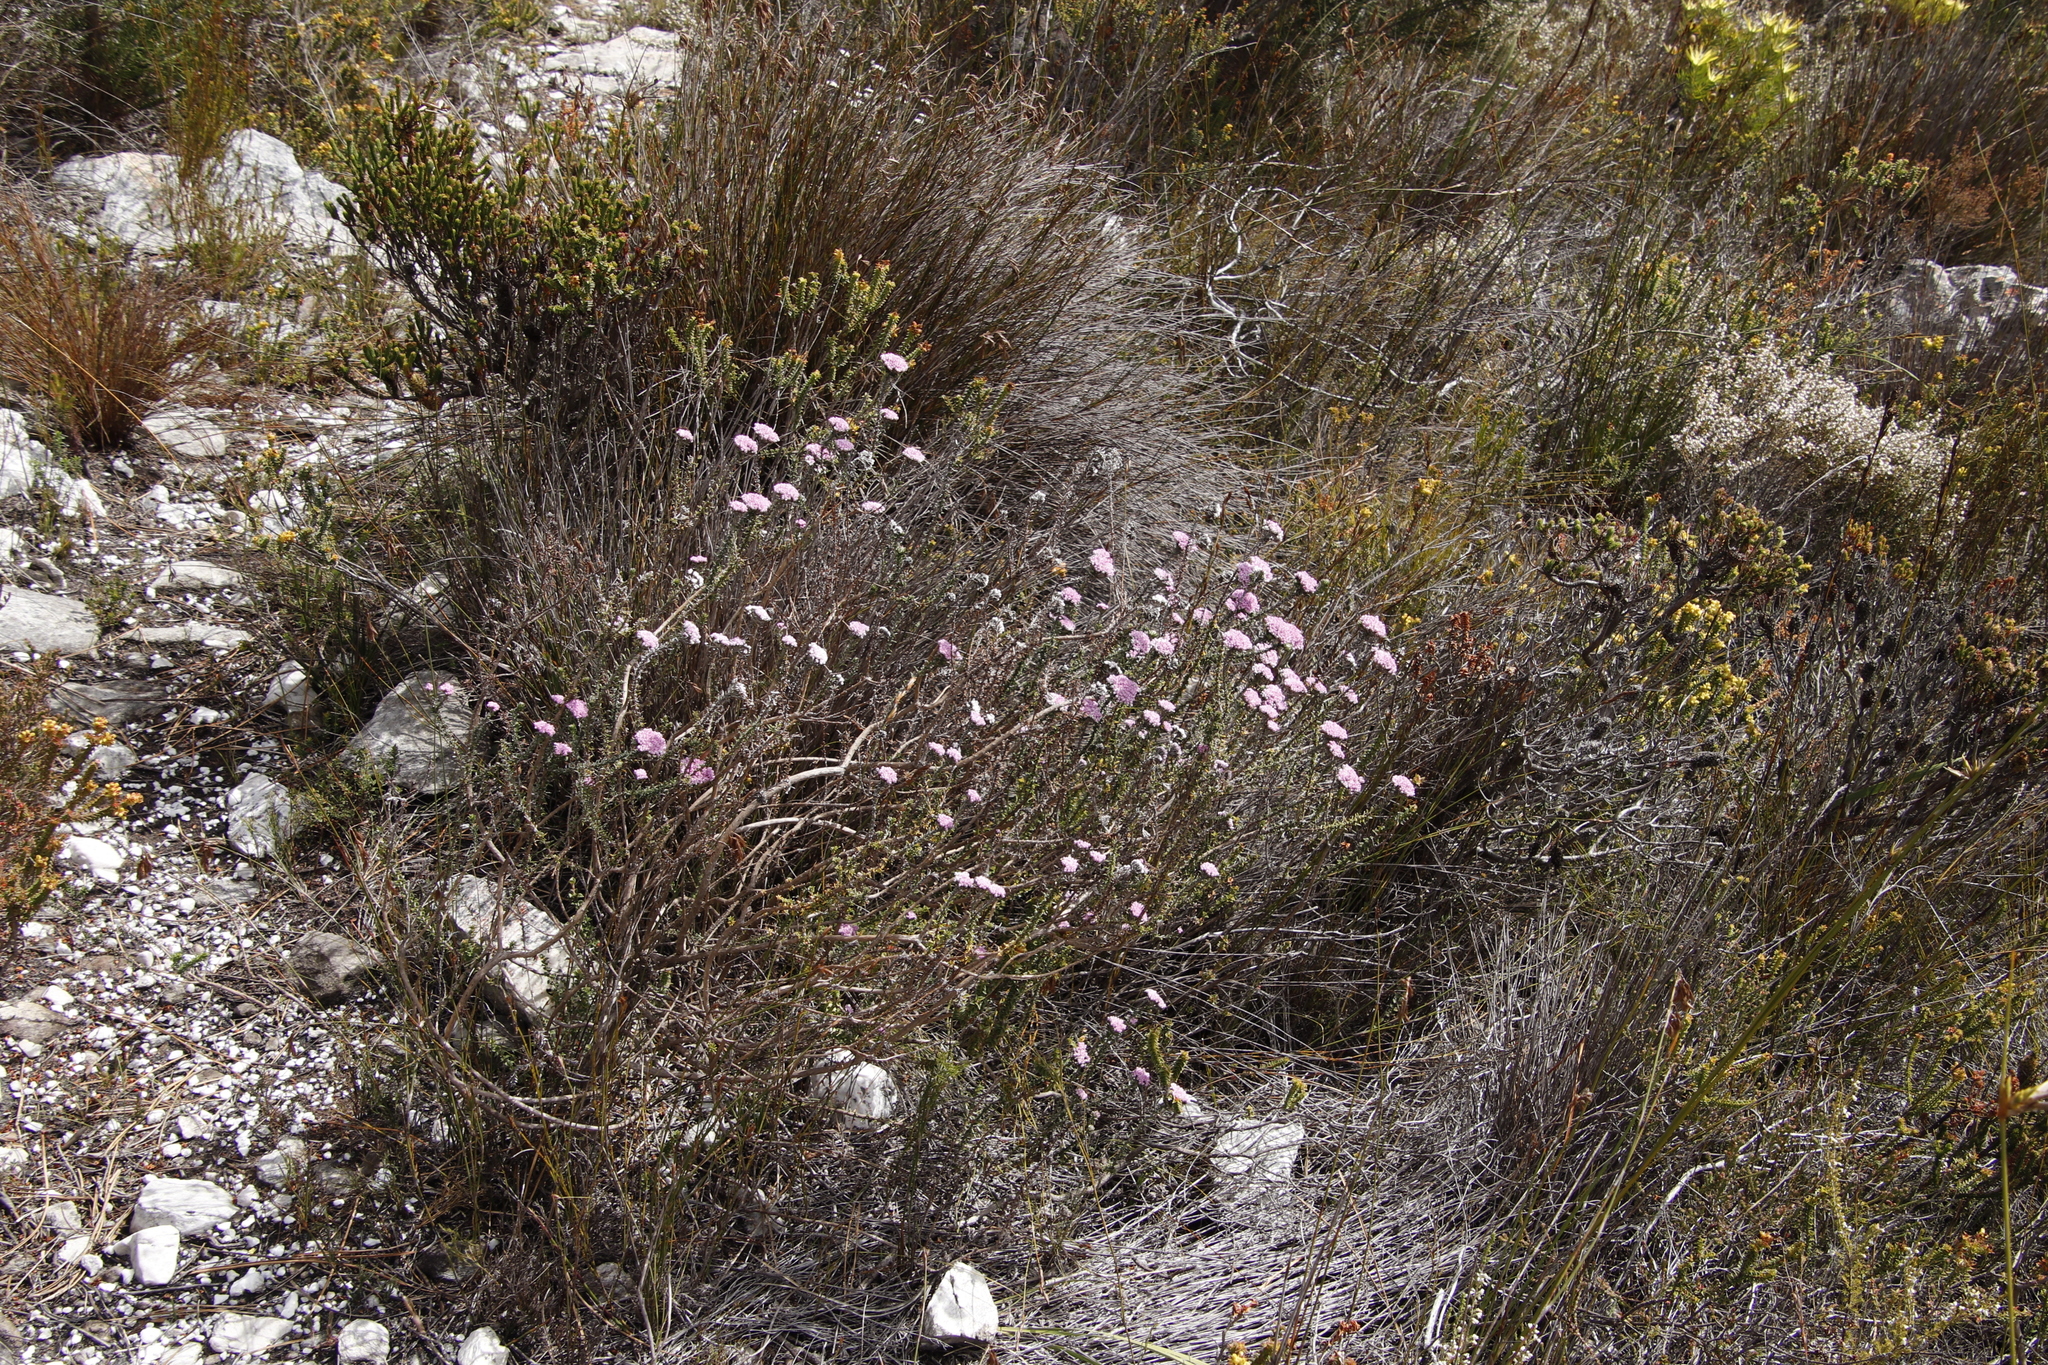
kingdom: Plantae
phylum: Tracheophyta
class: Magnoliopsida
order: Asterales
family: Asteraceae
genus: Metalasia
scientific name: Metalasia serrata
